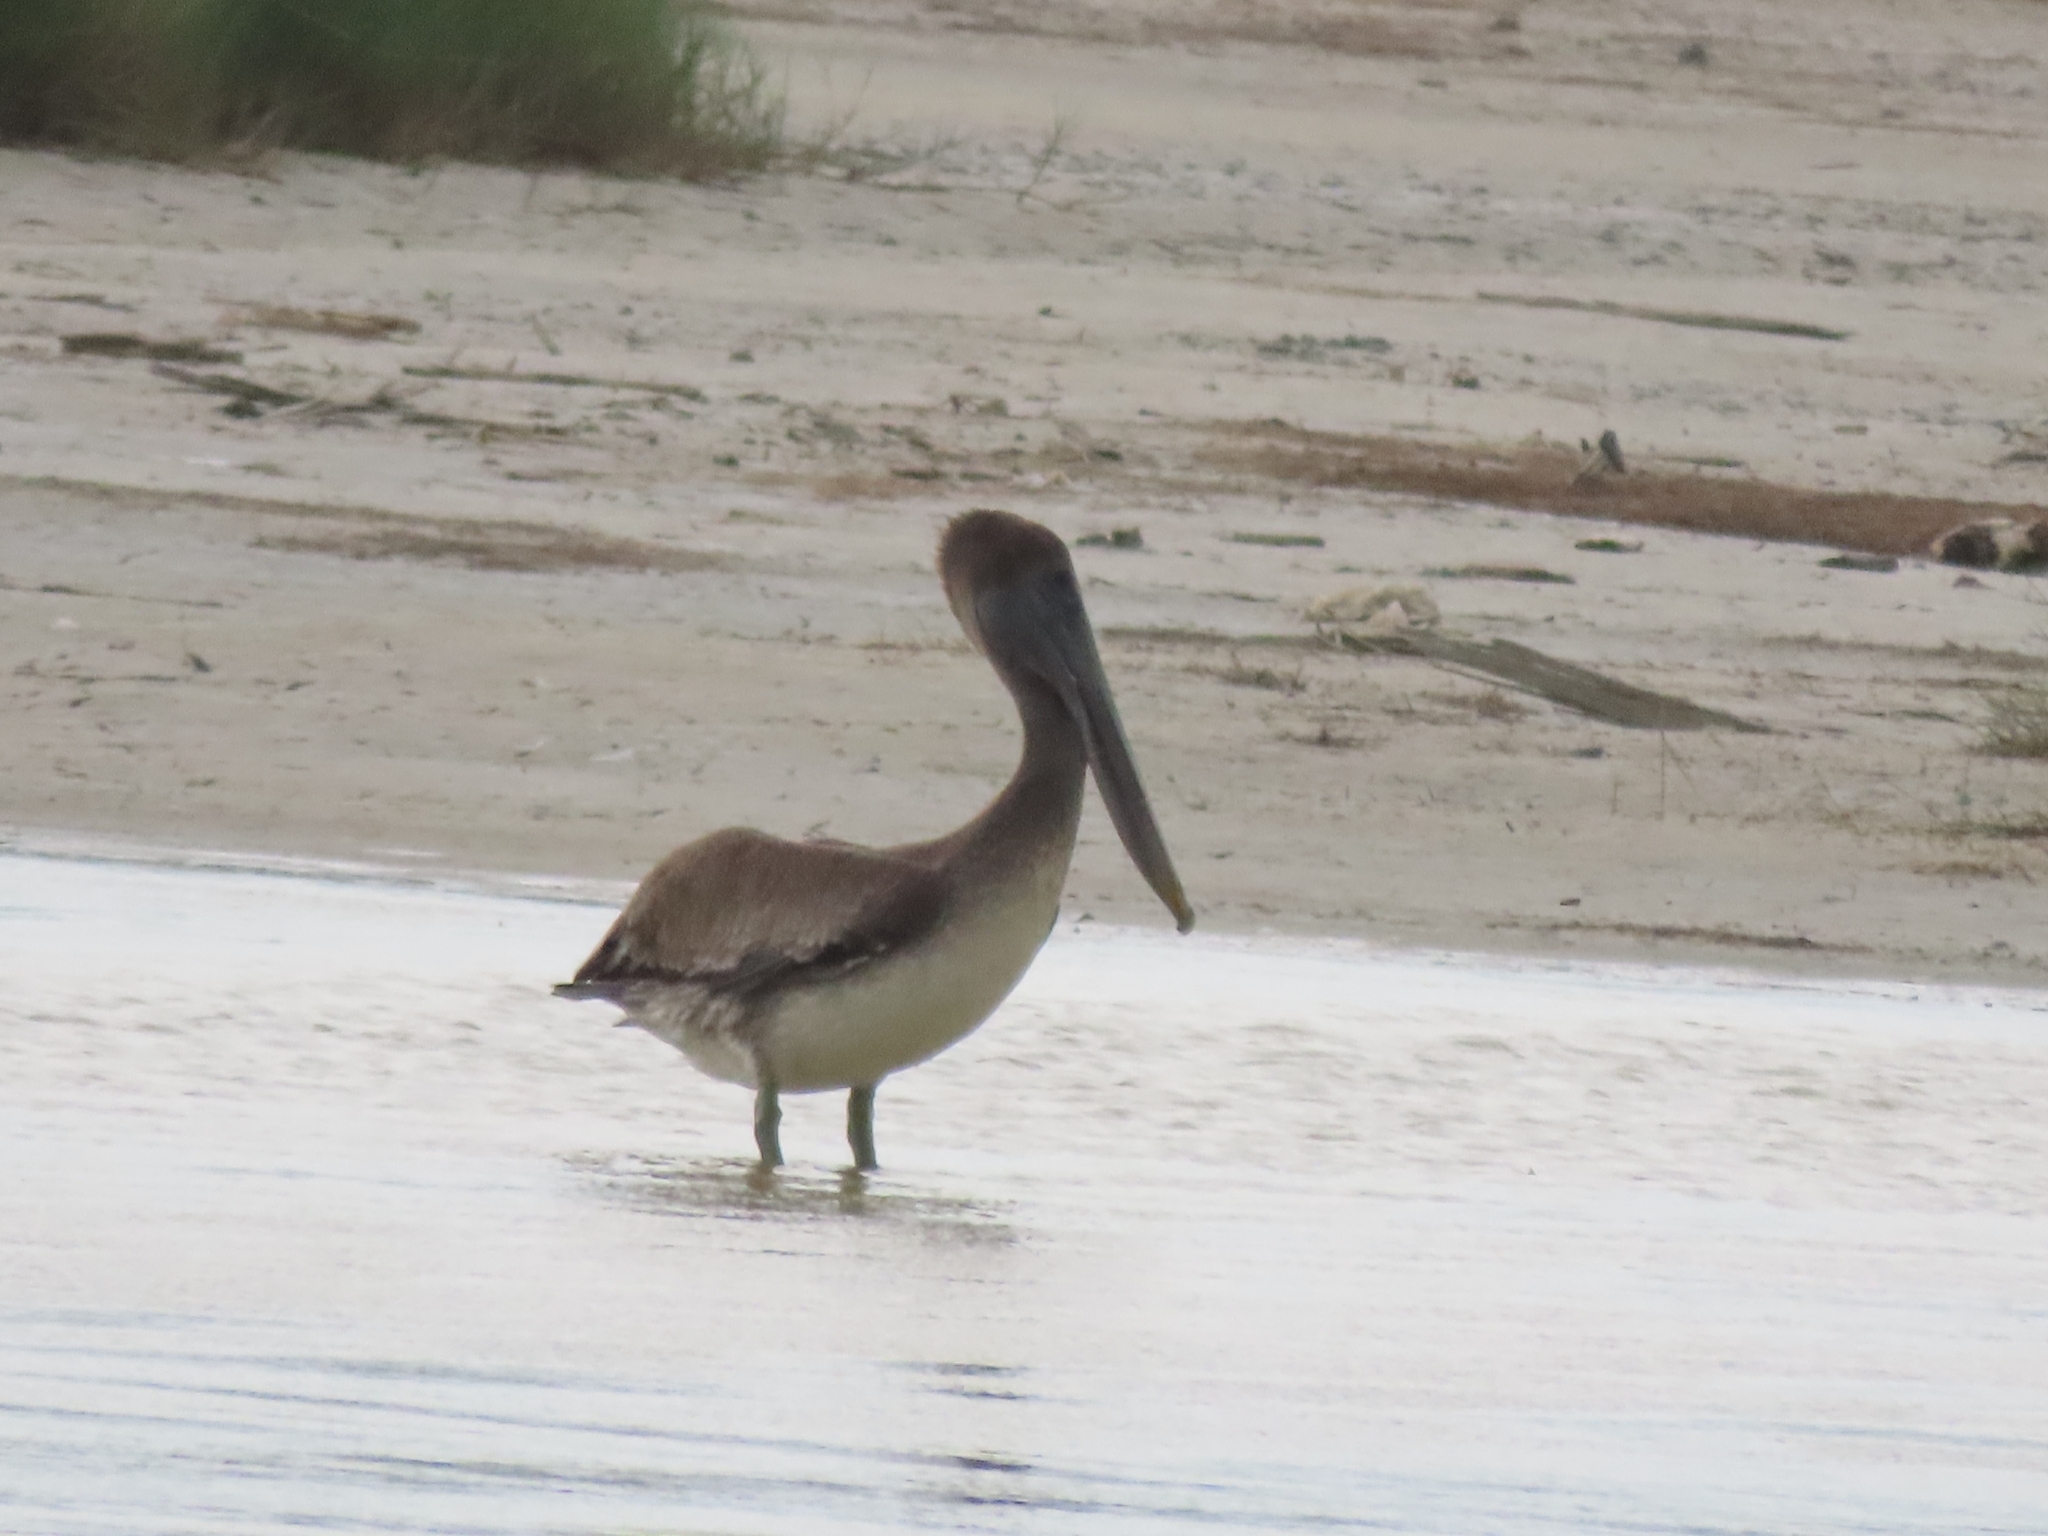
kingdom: Animalia
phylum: Chordata
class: Aves
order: Pelecaniformes
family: Pelecanidae
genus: Pelecanus
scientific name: Pelecanus occidentalis
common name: Brown pelican
